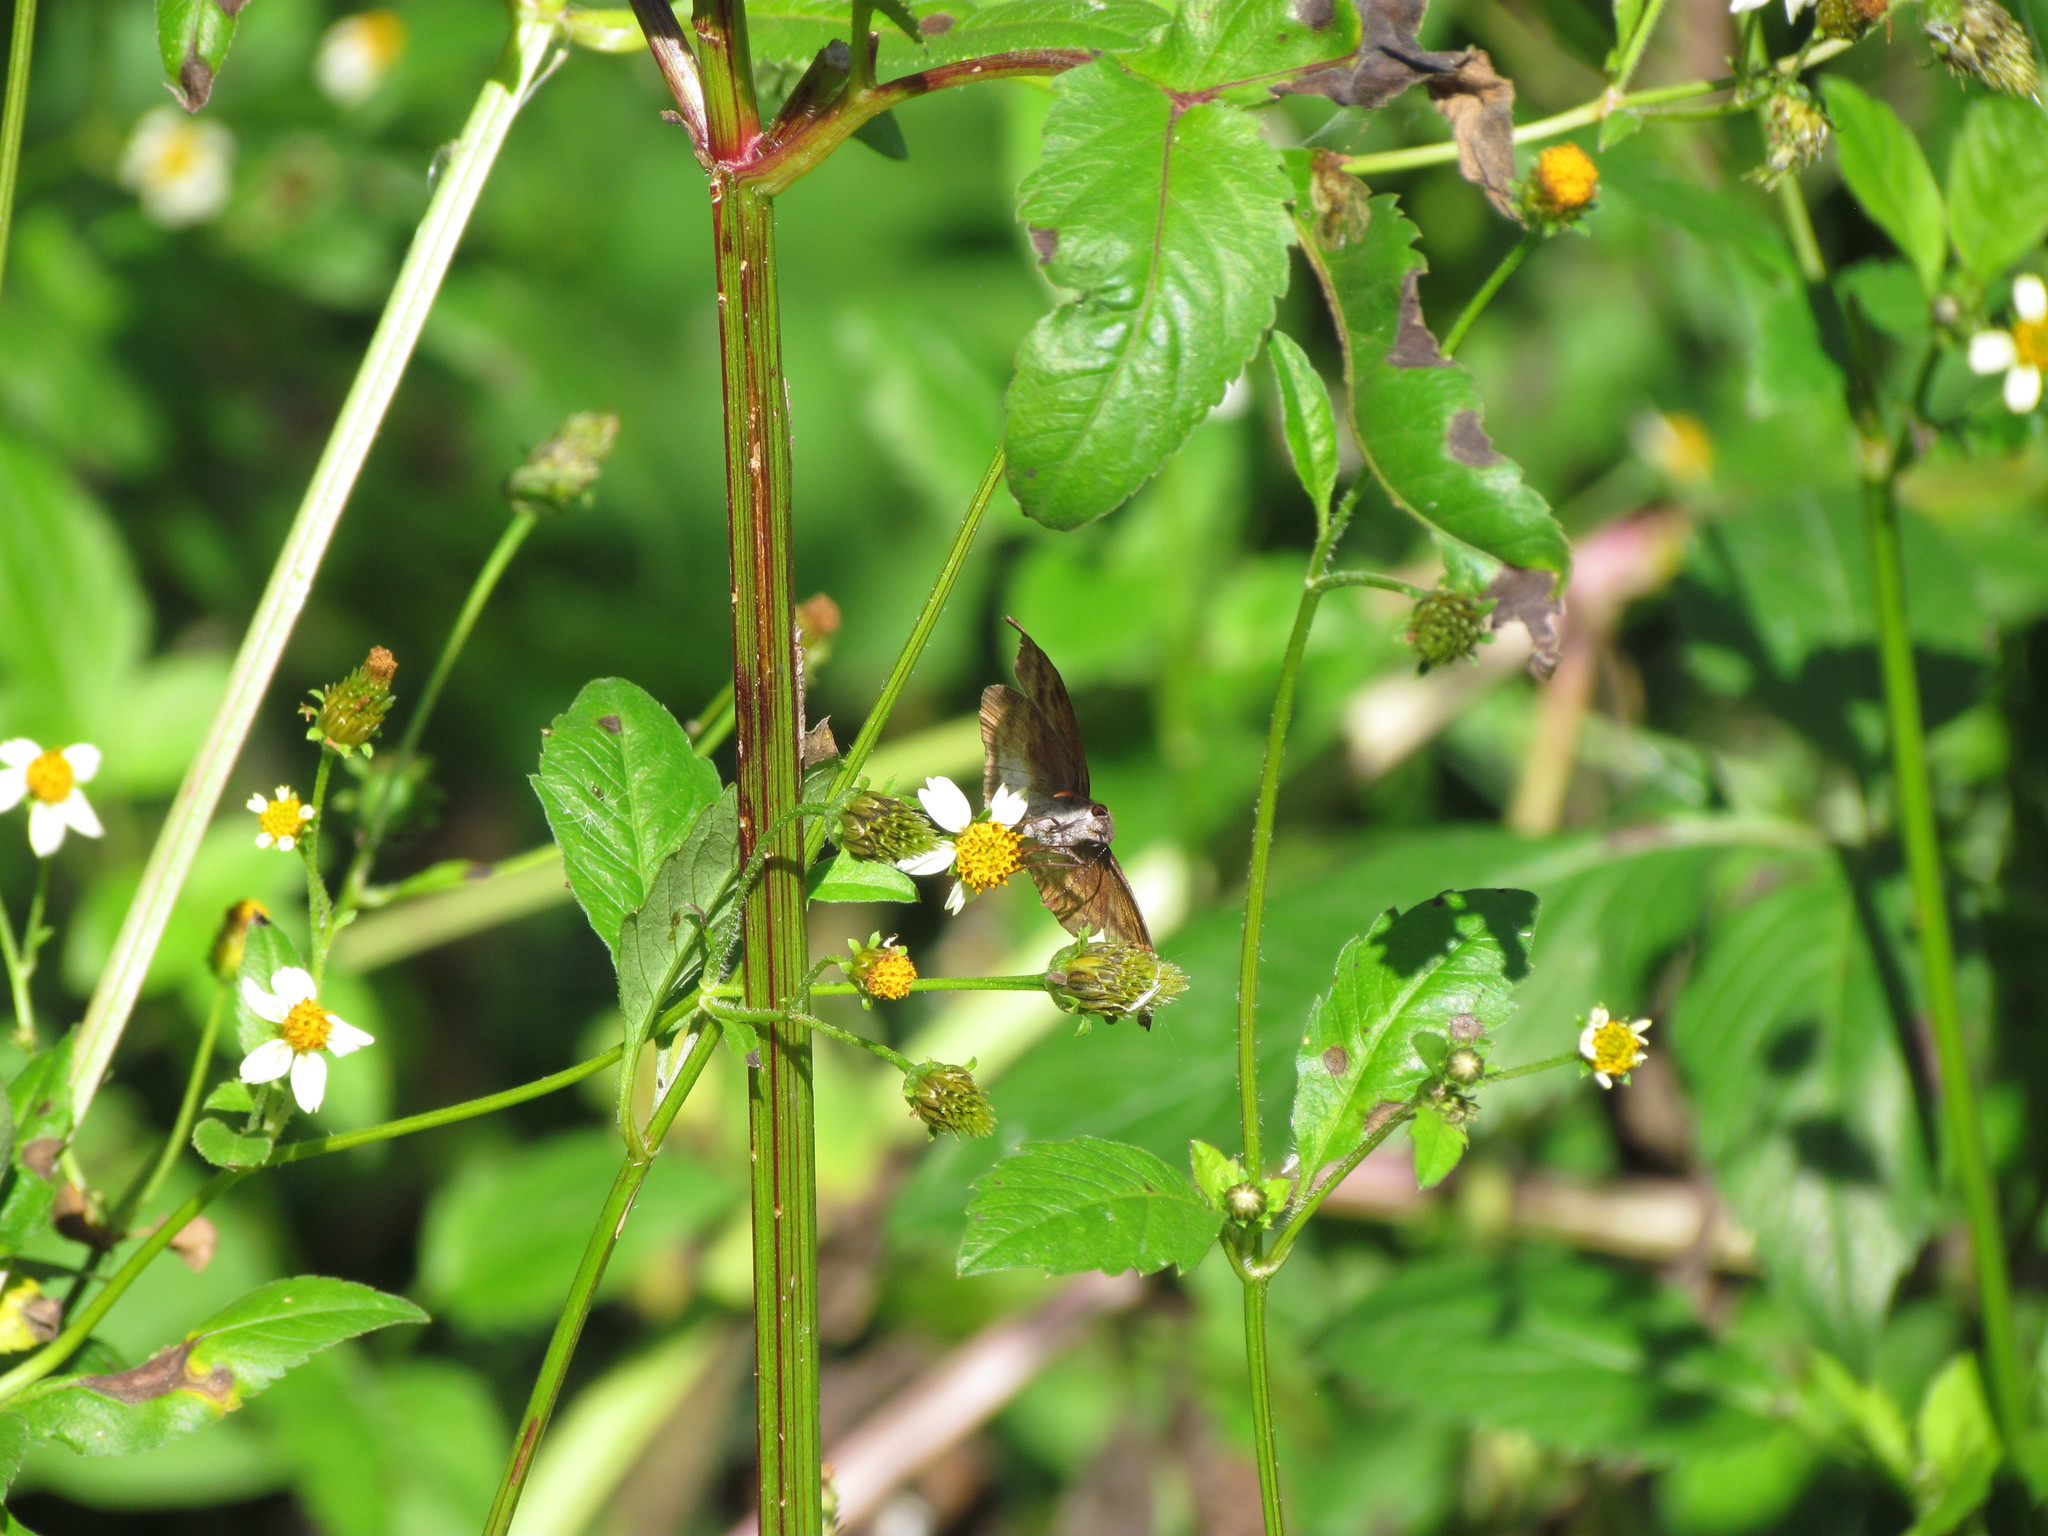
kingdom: Animalia
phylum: Arthropoda
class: Insecta
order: Lepidoptera
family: Hesperiidae
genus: Anisochoria
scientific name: Anisochoria sublimbata
